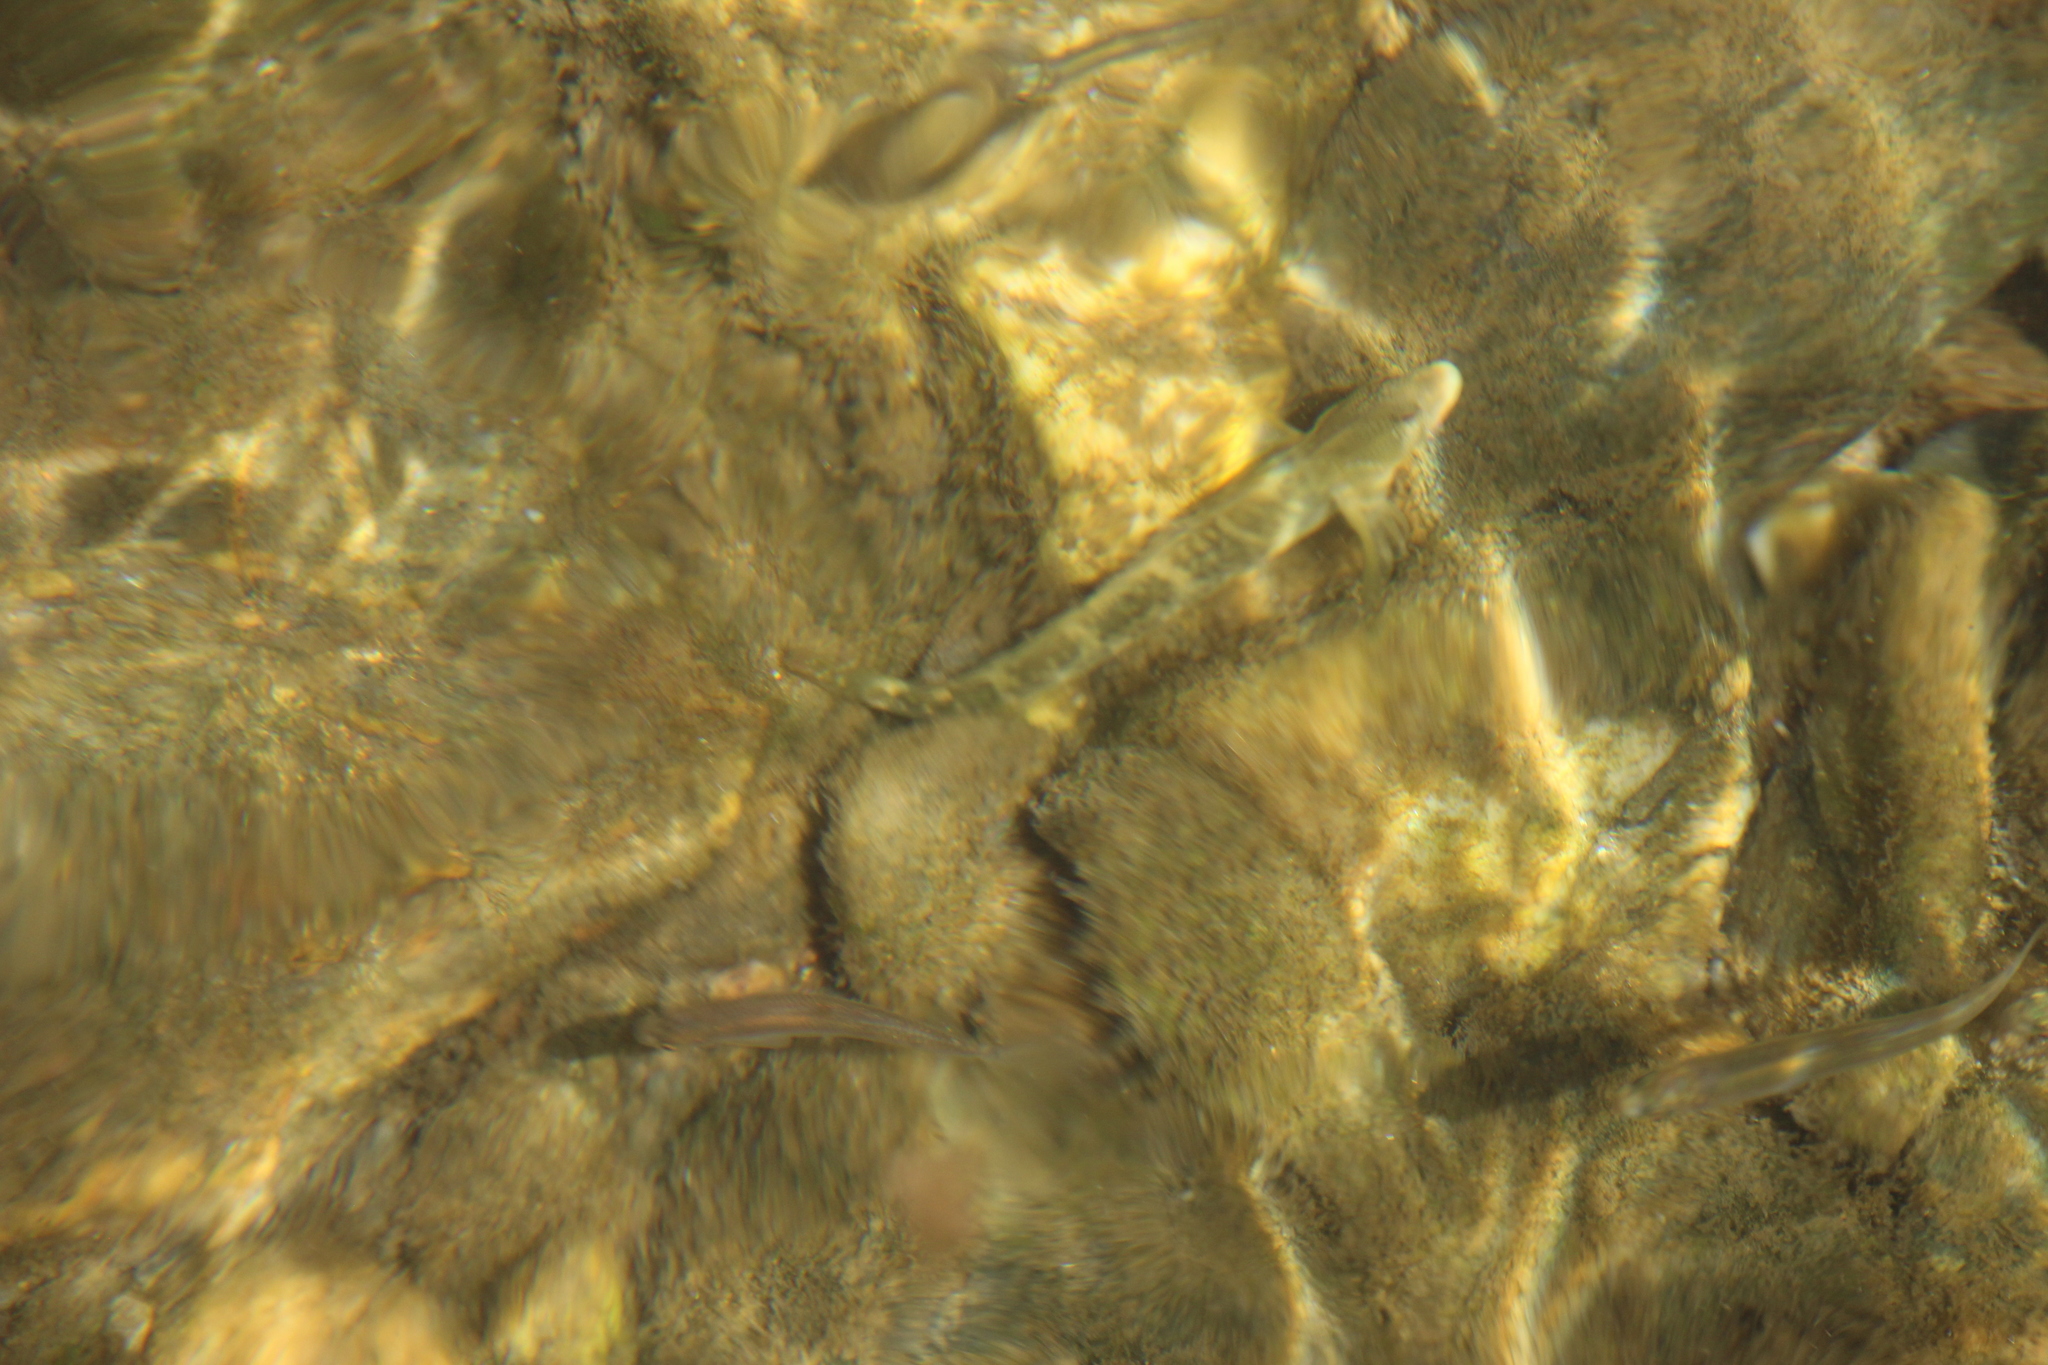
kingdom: Animalia
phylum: Chordata
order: Perciformes
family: Blenniidae
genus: Salaria
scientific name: Salaria fluviatilis
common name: Freshwater blenny
